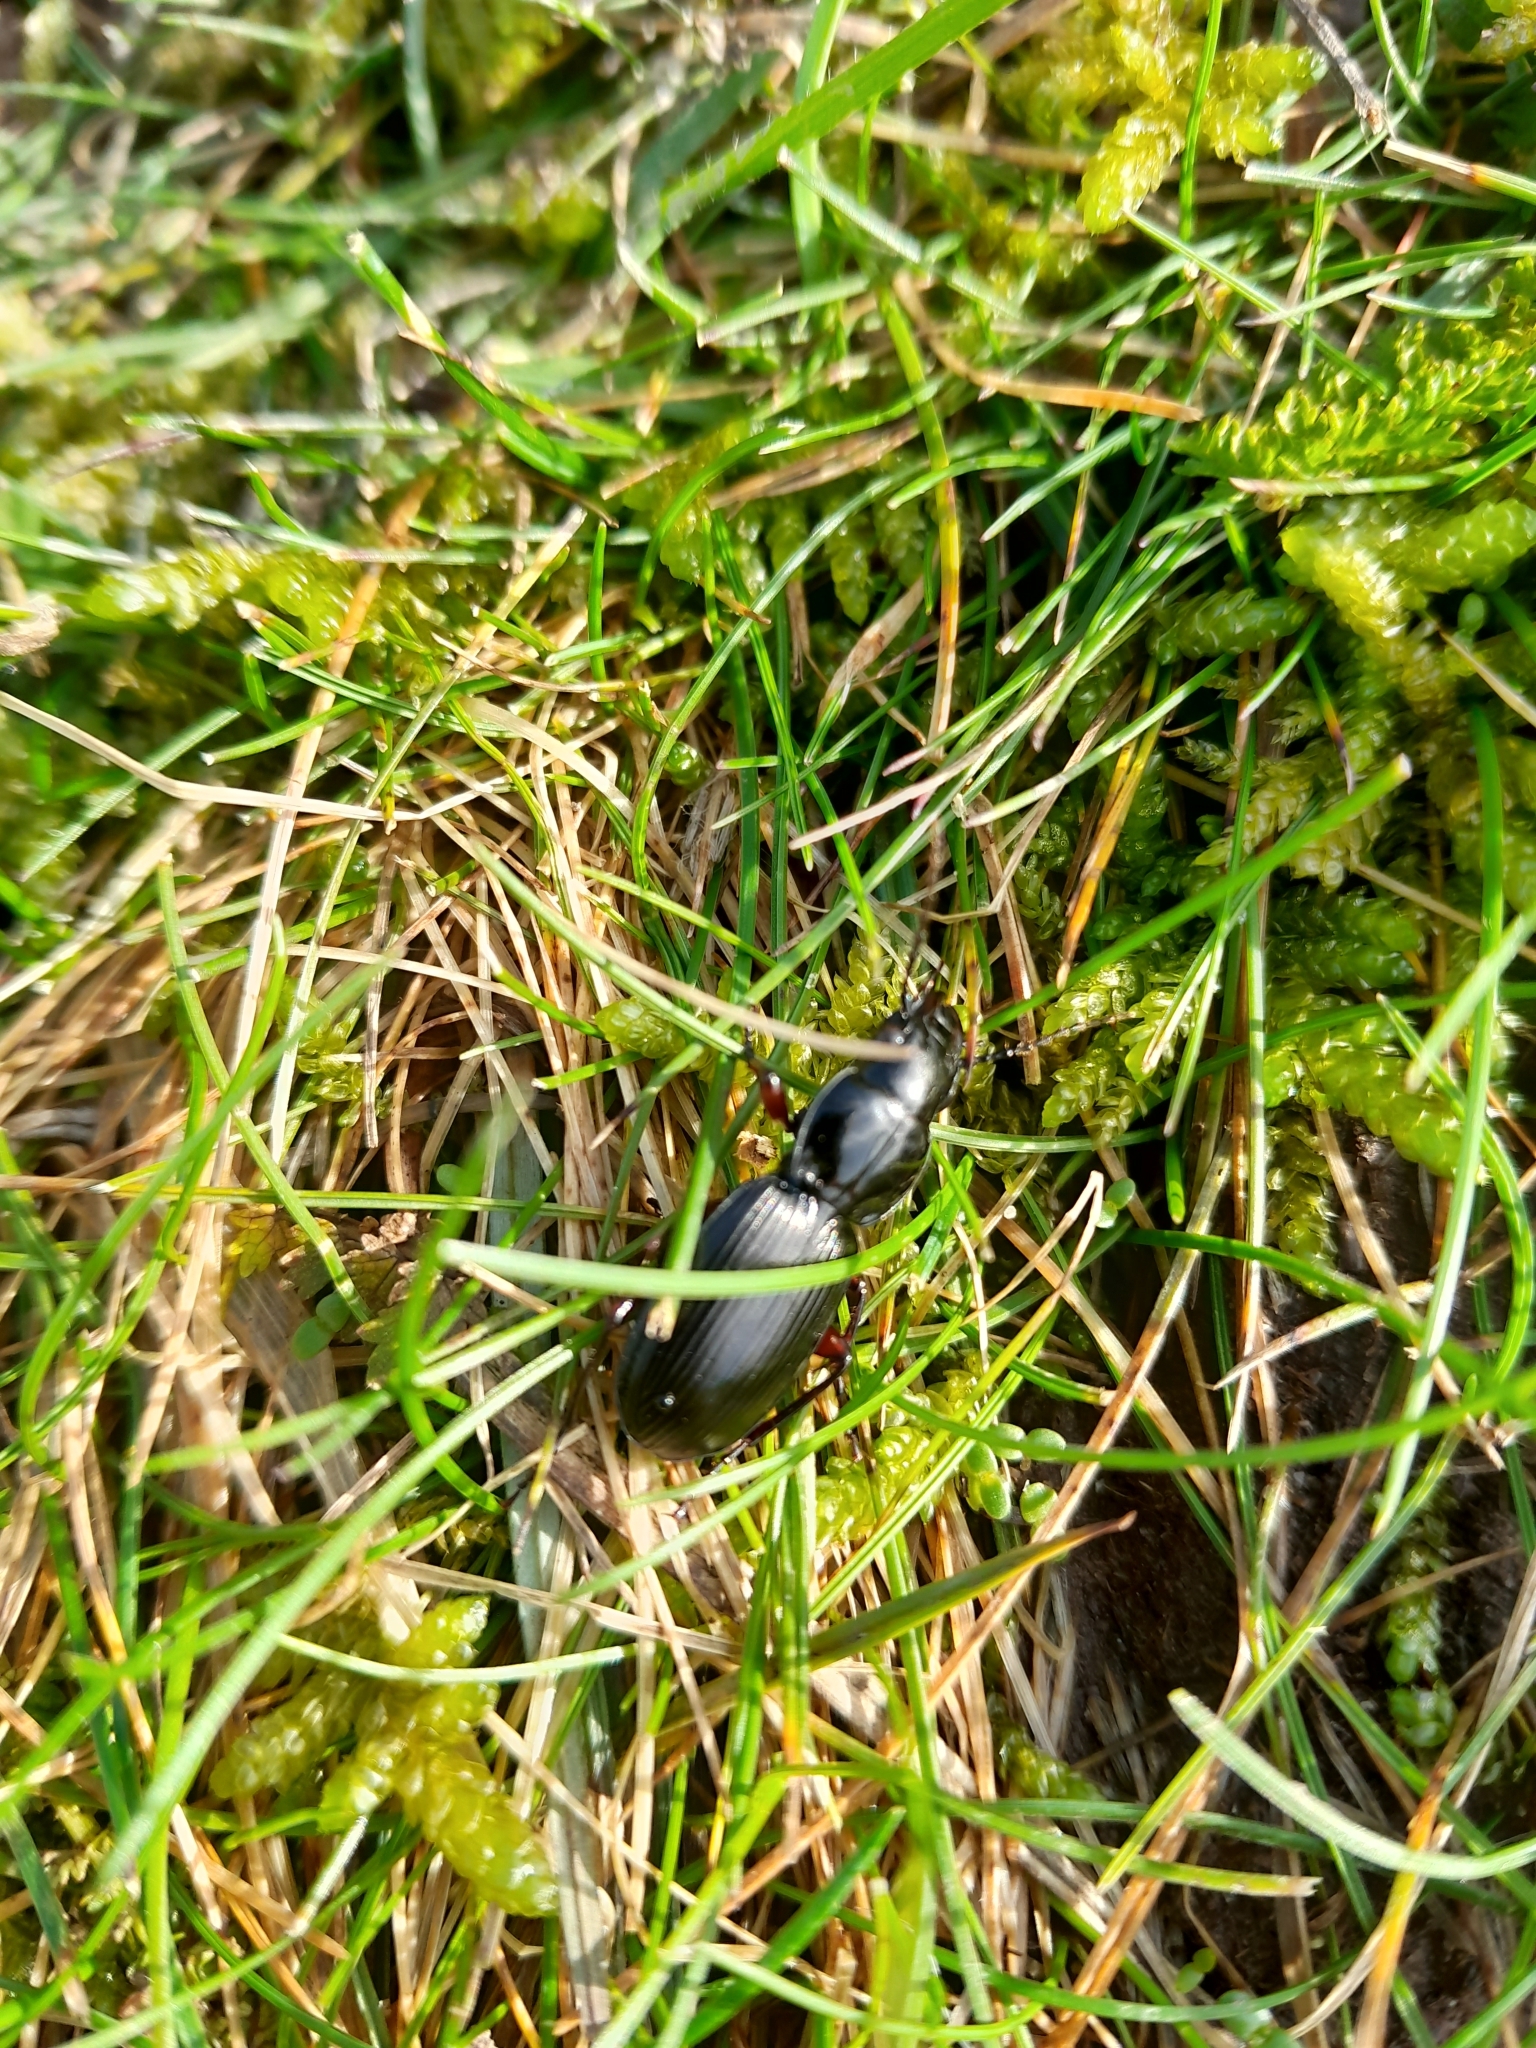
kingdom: Animalia
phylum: Arthropoda
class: Insecta
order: Coleoptera
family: Carabidae
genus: Pterostichus
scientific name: Pterostichus madidus
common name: Black clock
